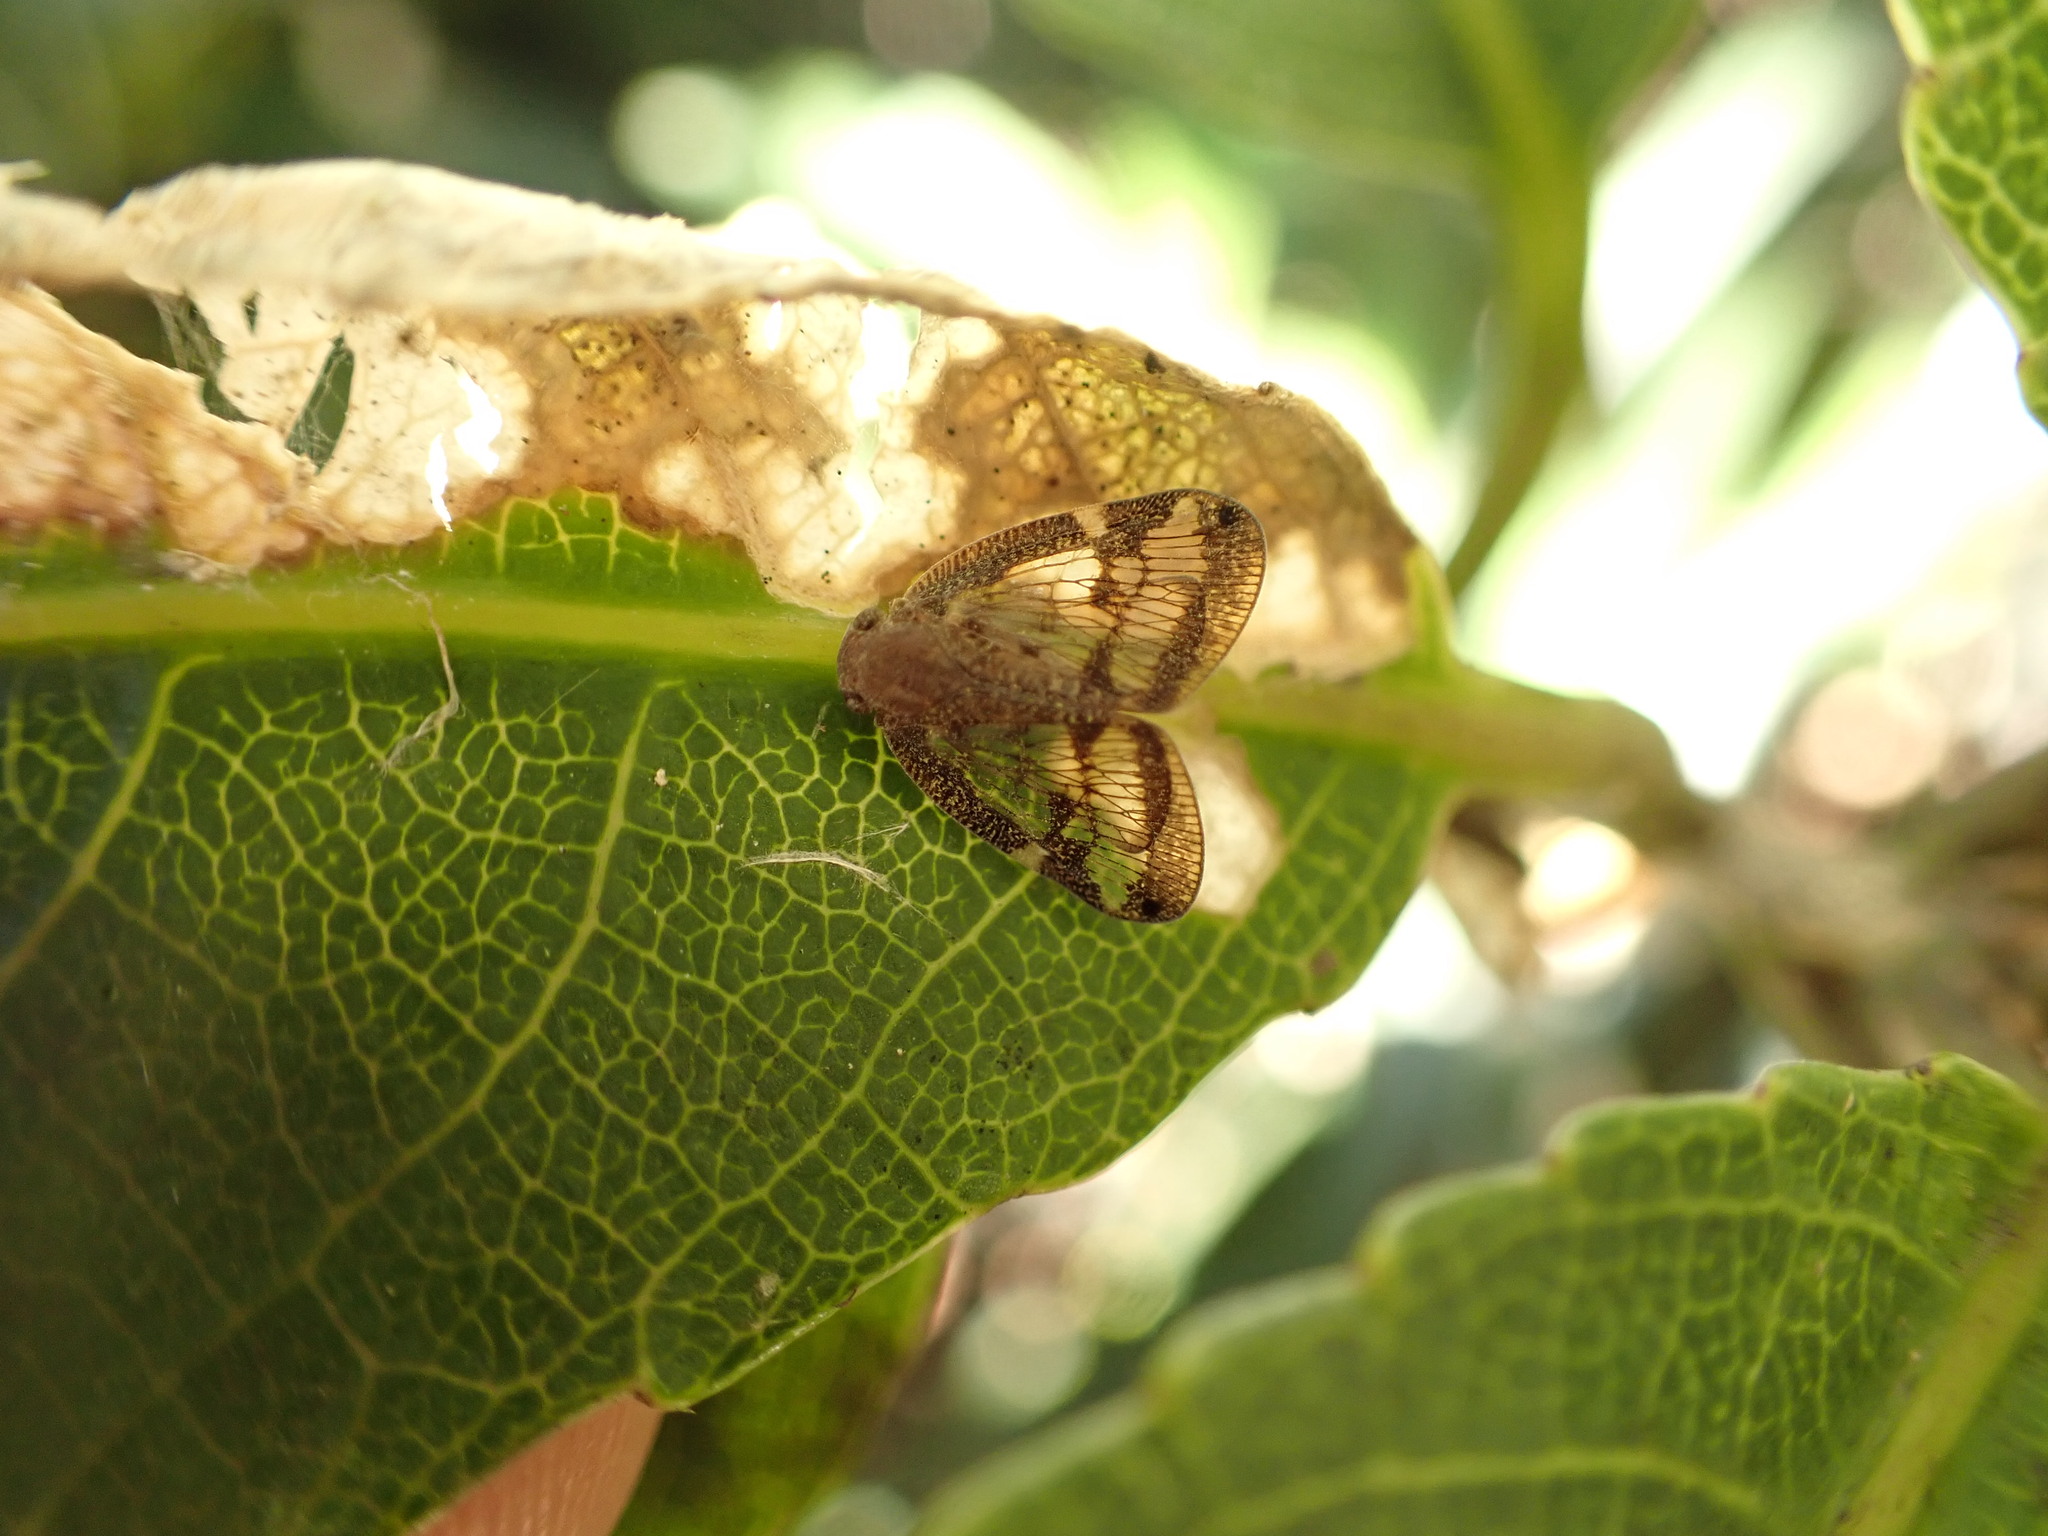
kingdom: Animalia
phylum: Arthropoda
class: Insecta
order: Hemiptera
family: Ricaniidae
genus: Scolypopa
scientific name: Scolypopa australis
